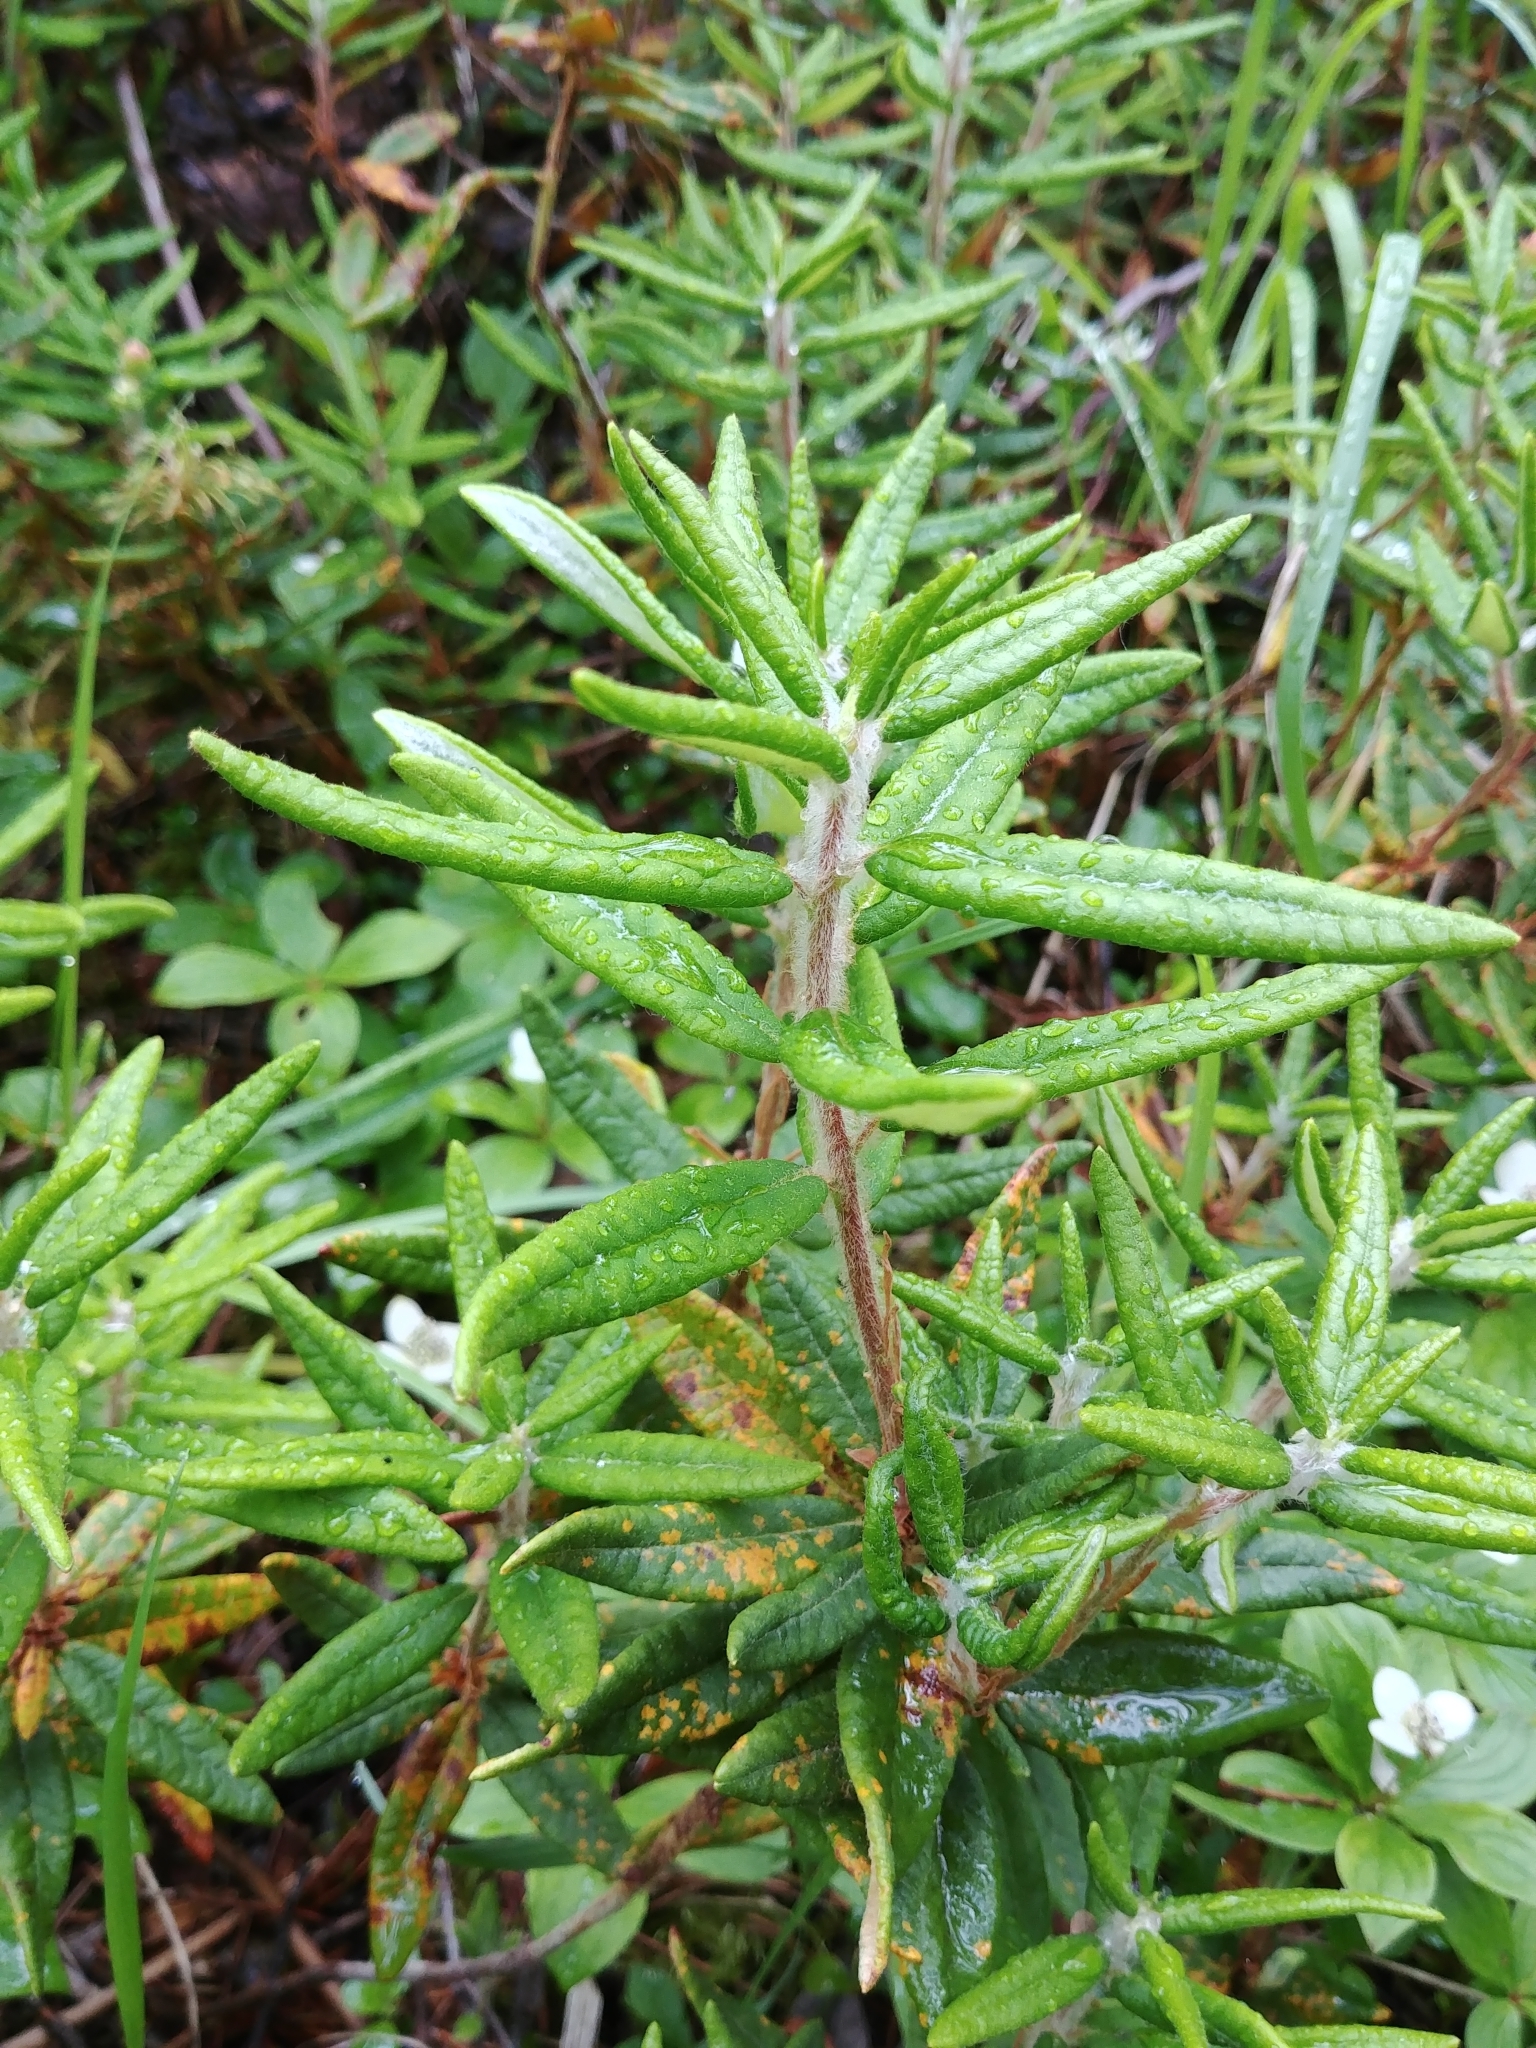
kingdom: Plantae
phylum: Tracheophyta
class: Magnoliopsida
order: Ericales
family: Ericaceae
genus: Rhododendron
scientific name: Rhododendron groenlandicum
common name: Bog labrador tea
